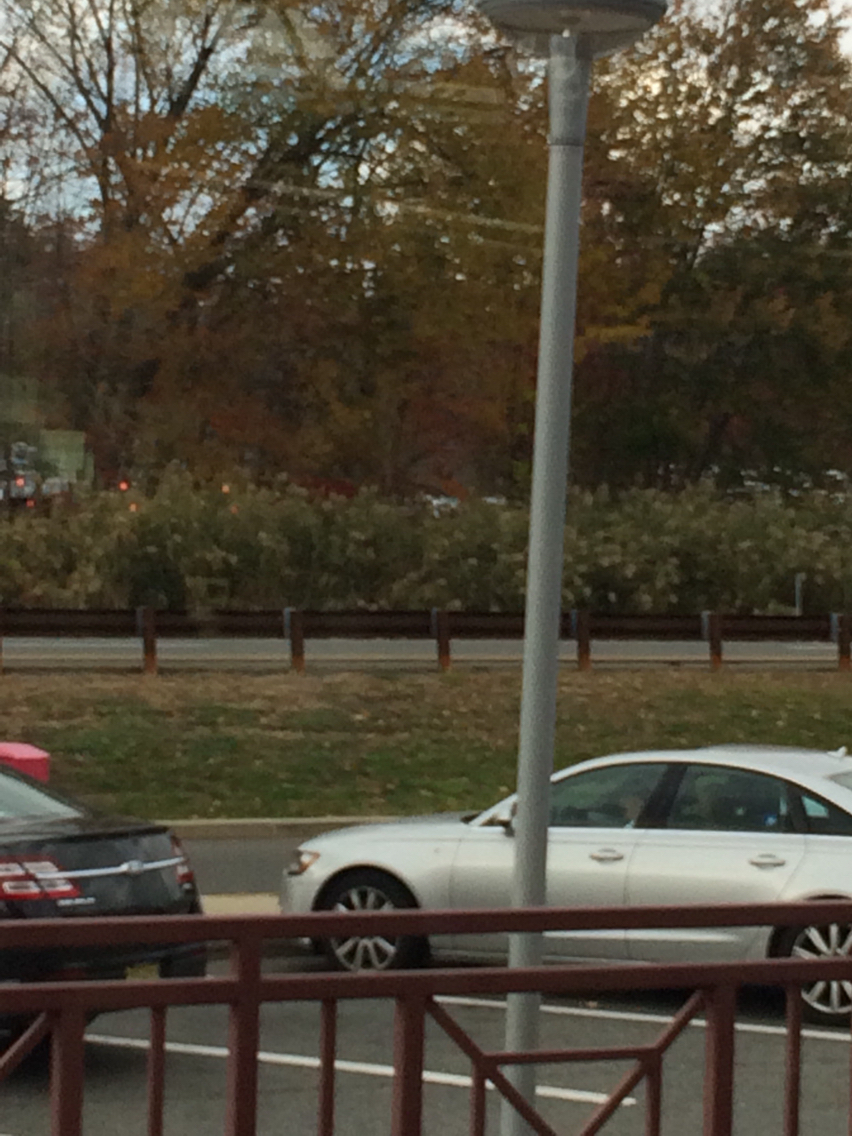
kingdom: Plantae
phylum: Tracheophyta
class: Liliopsida
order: Poales
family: Poaceae
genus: Phragmites
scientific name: Phragmites australis
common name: Common reed
